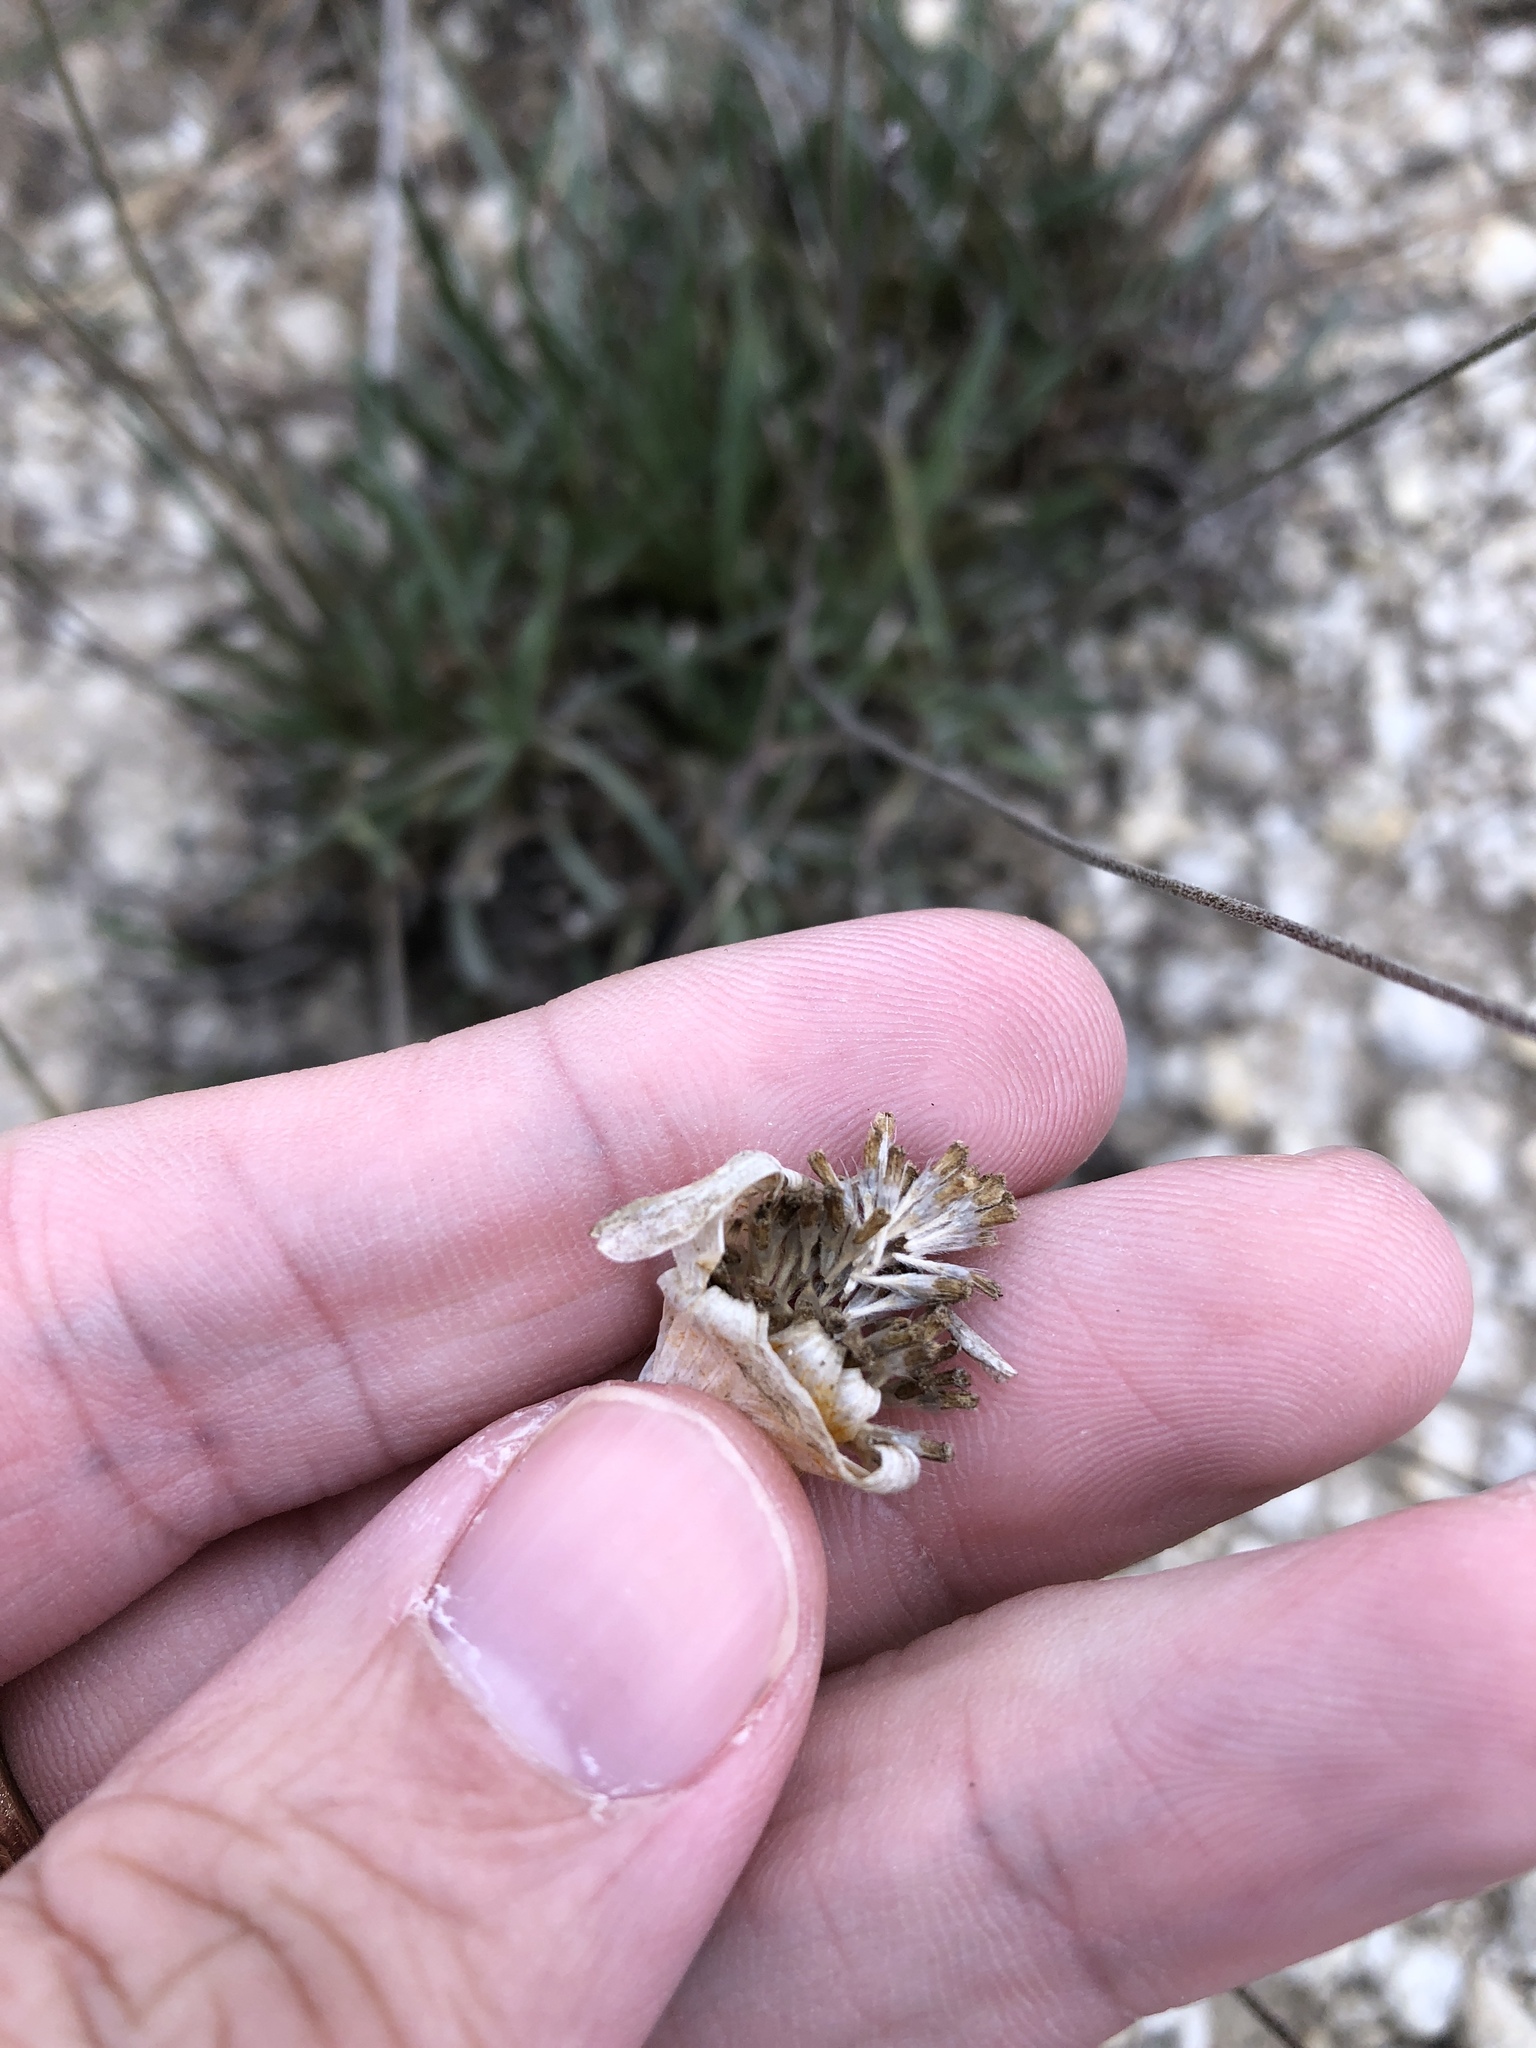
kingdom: Plantae
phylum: Tracheophyta
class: Magnoliopsida
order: Asterales
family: Asteraceae
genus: Tetraneuris
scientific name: Tetraneuris scaposa
